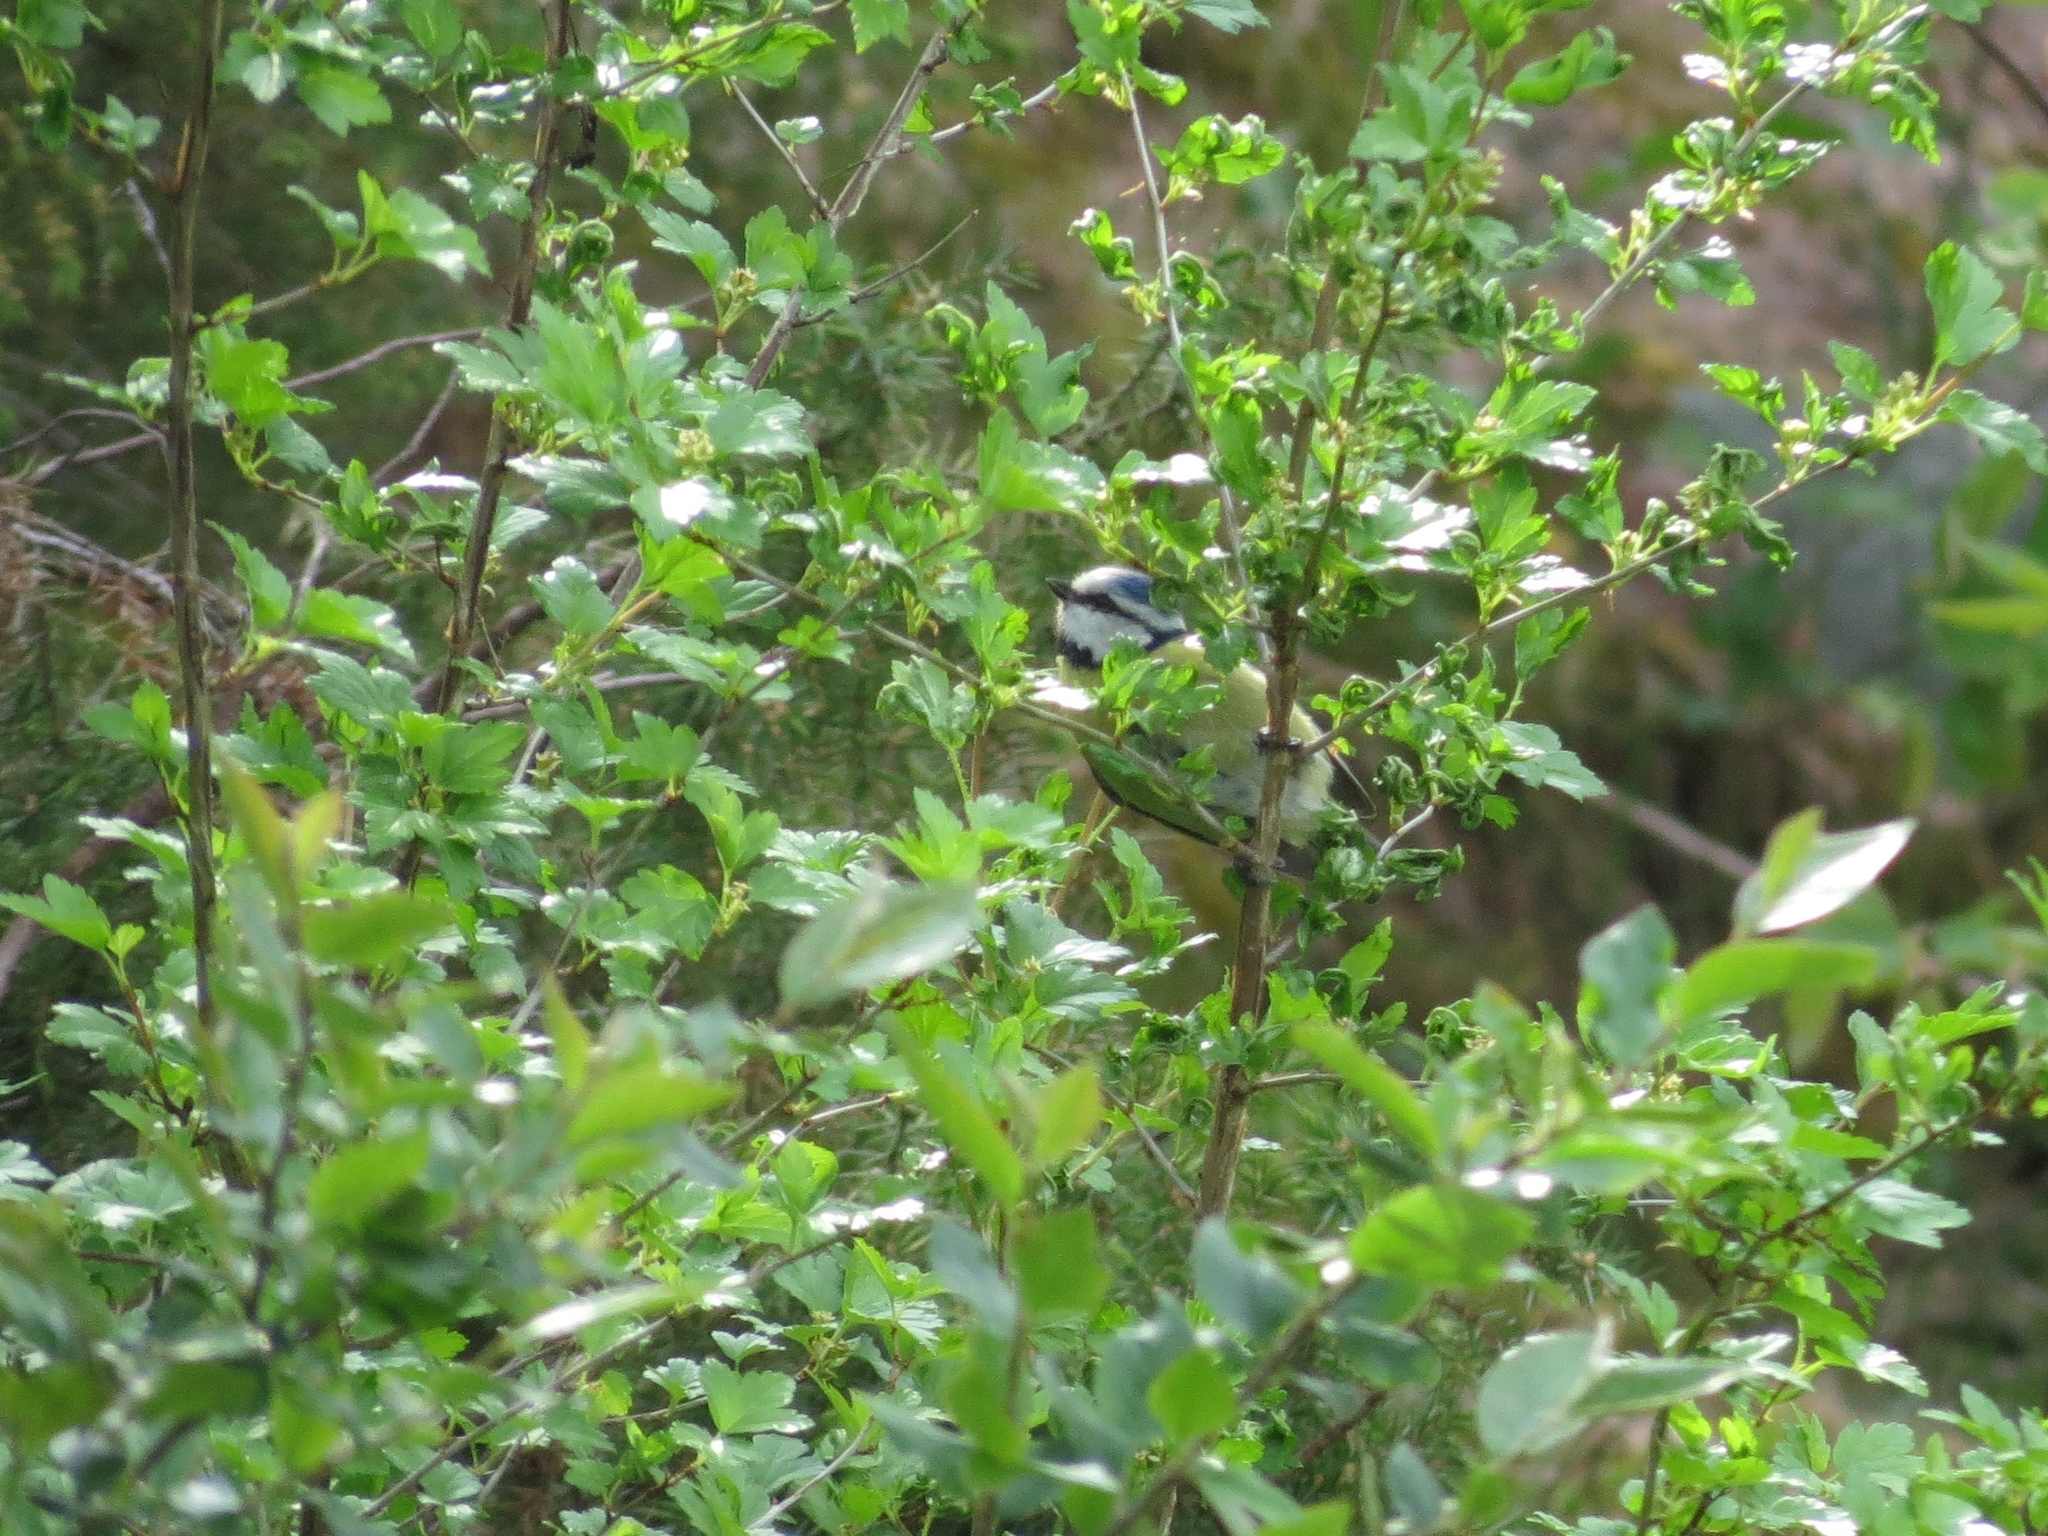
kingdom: Animalia
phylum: Chordata
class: Aves
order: Passeriformes
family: Paridae
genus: Cyanistes
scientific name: Cyanistes caeruleus
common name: Eurasian blue tit
